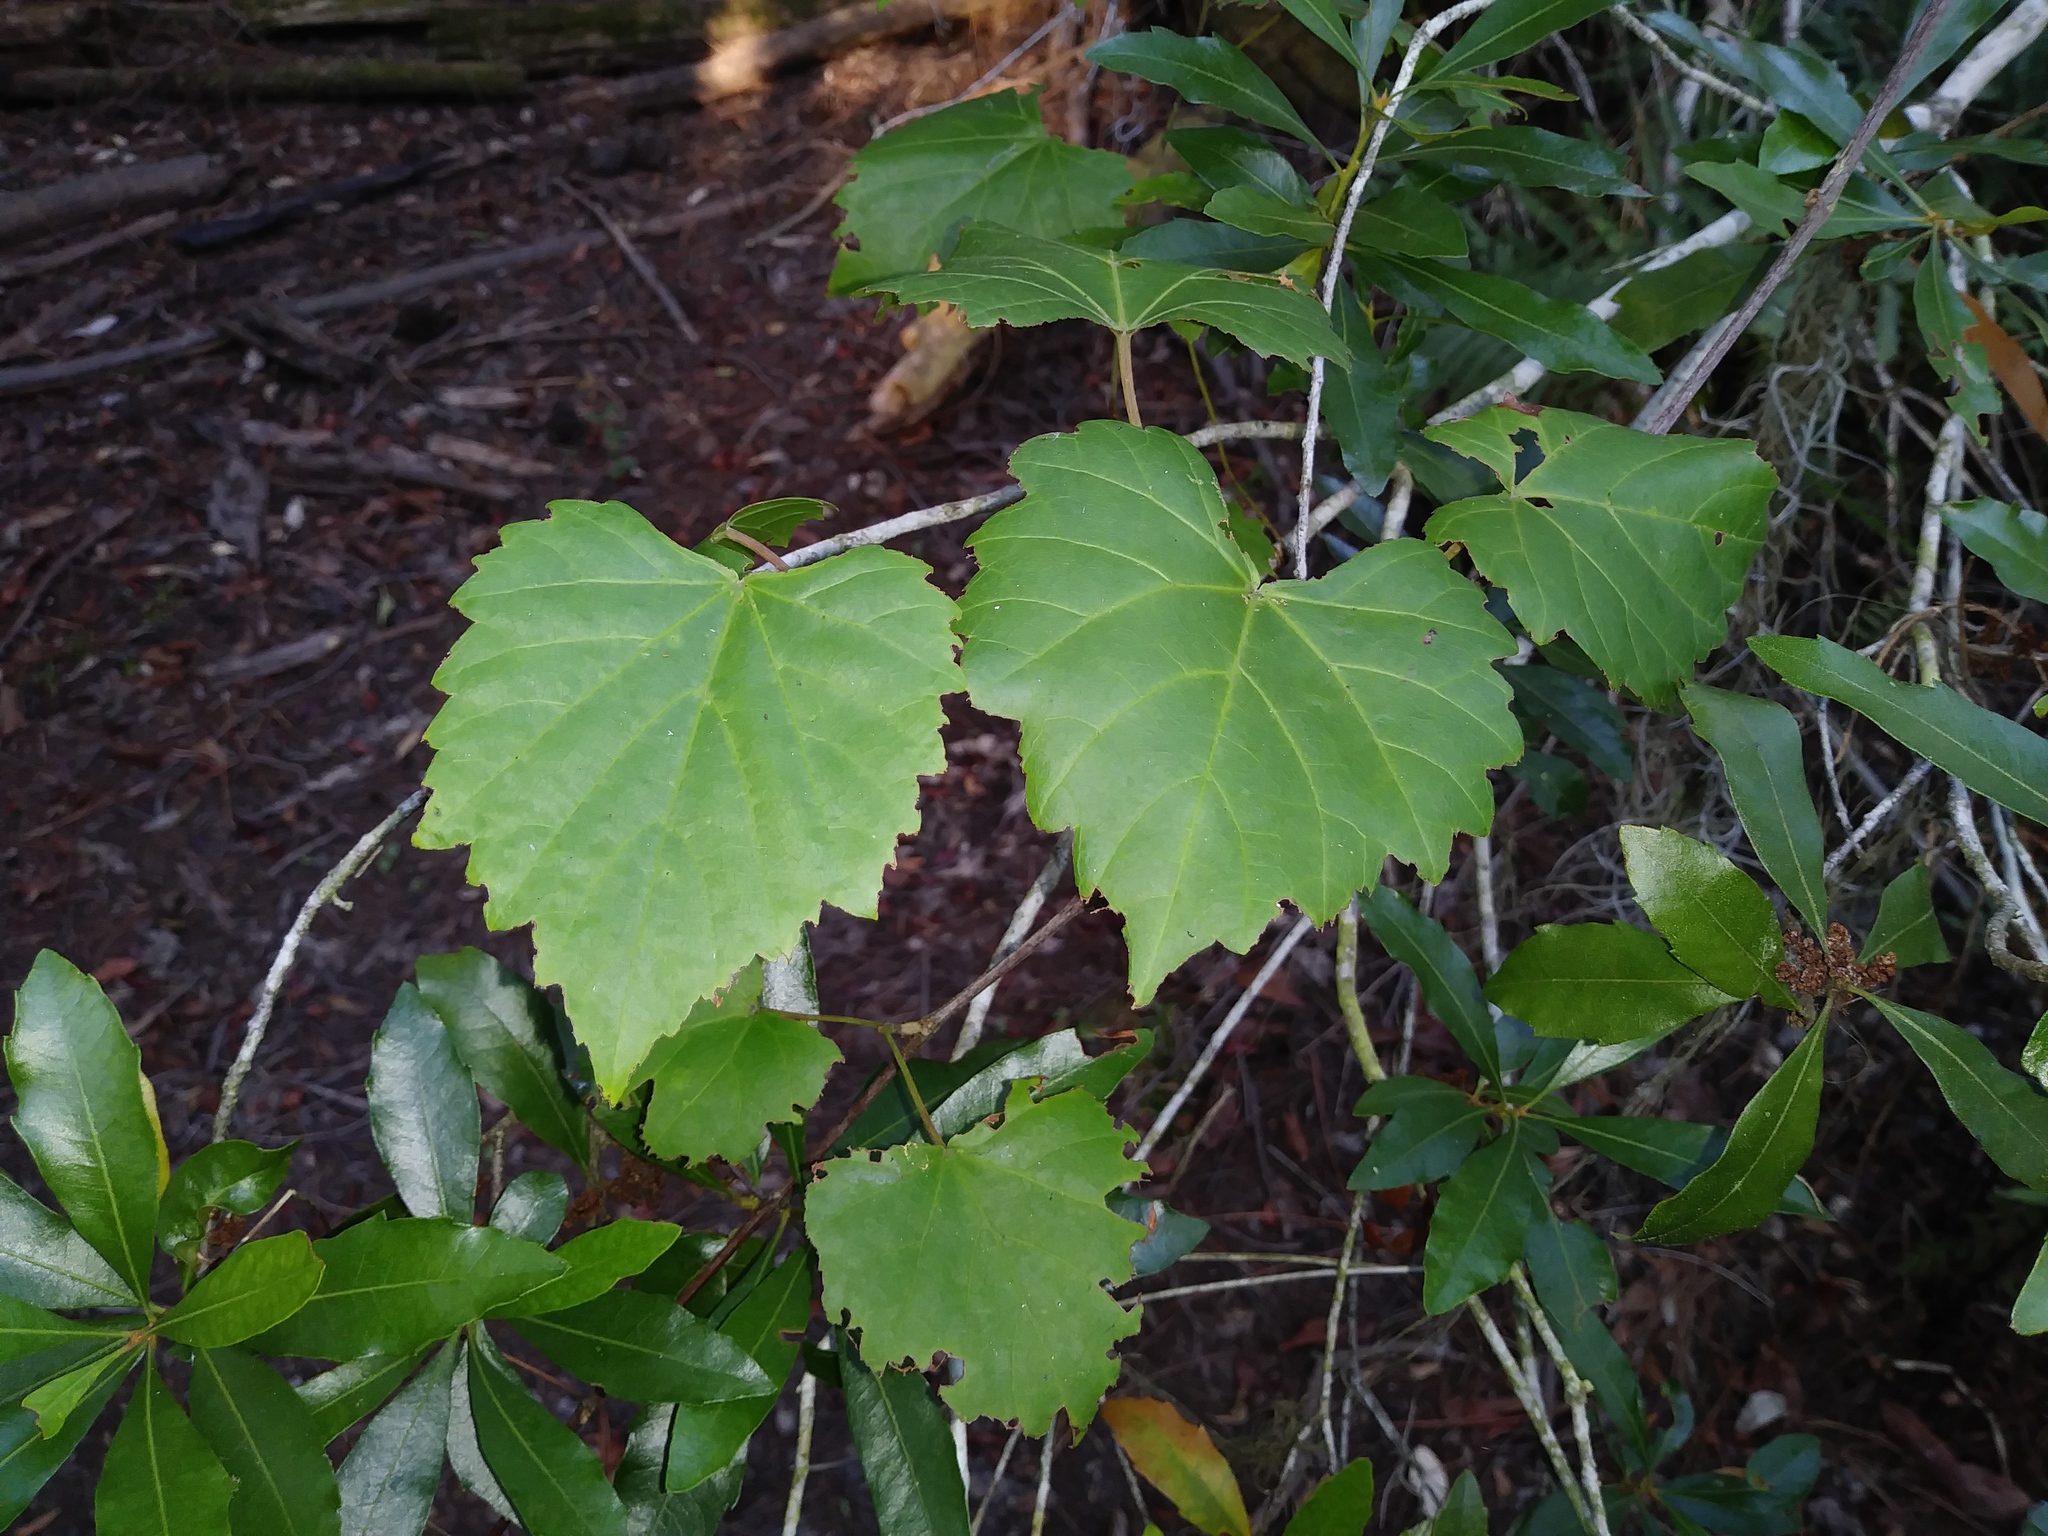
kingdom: Plantae
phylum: Tracheophyta
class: Magnoliopsida
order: Vitales
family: Vitaceae
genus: Vitis
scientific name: Vitis rotundifolia
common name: Muscadine grape
